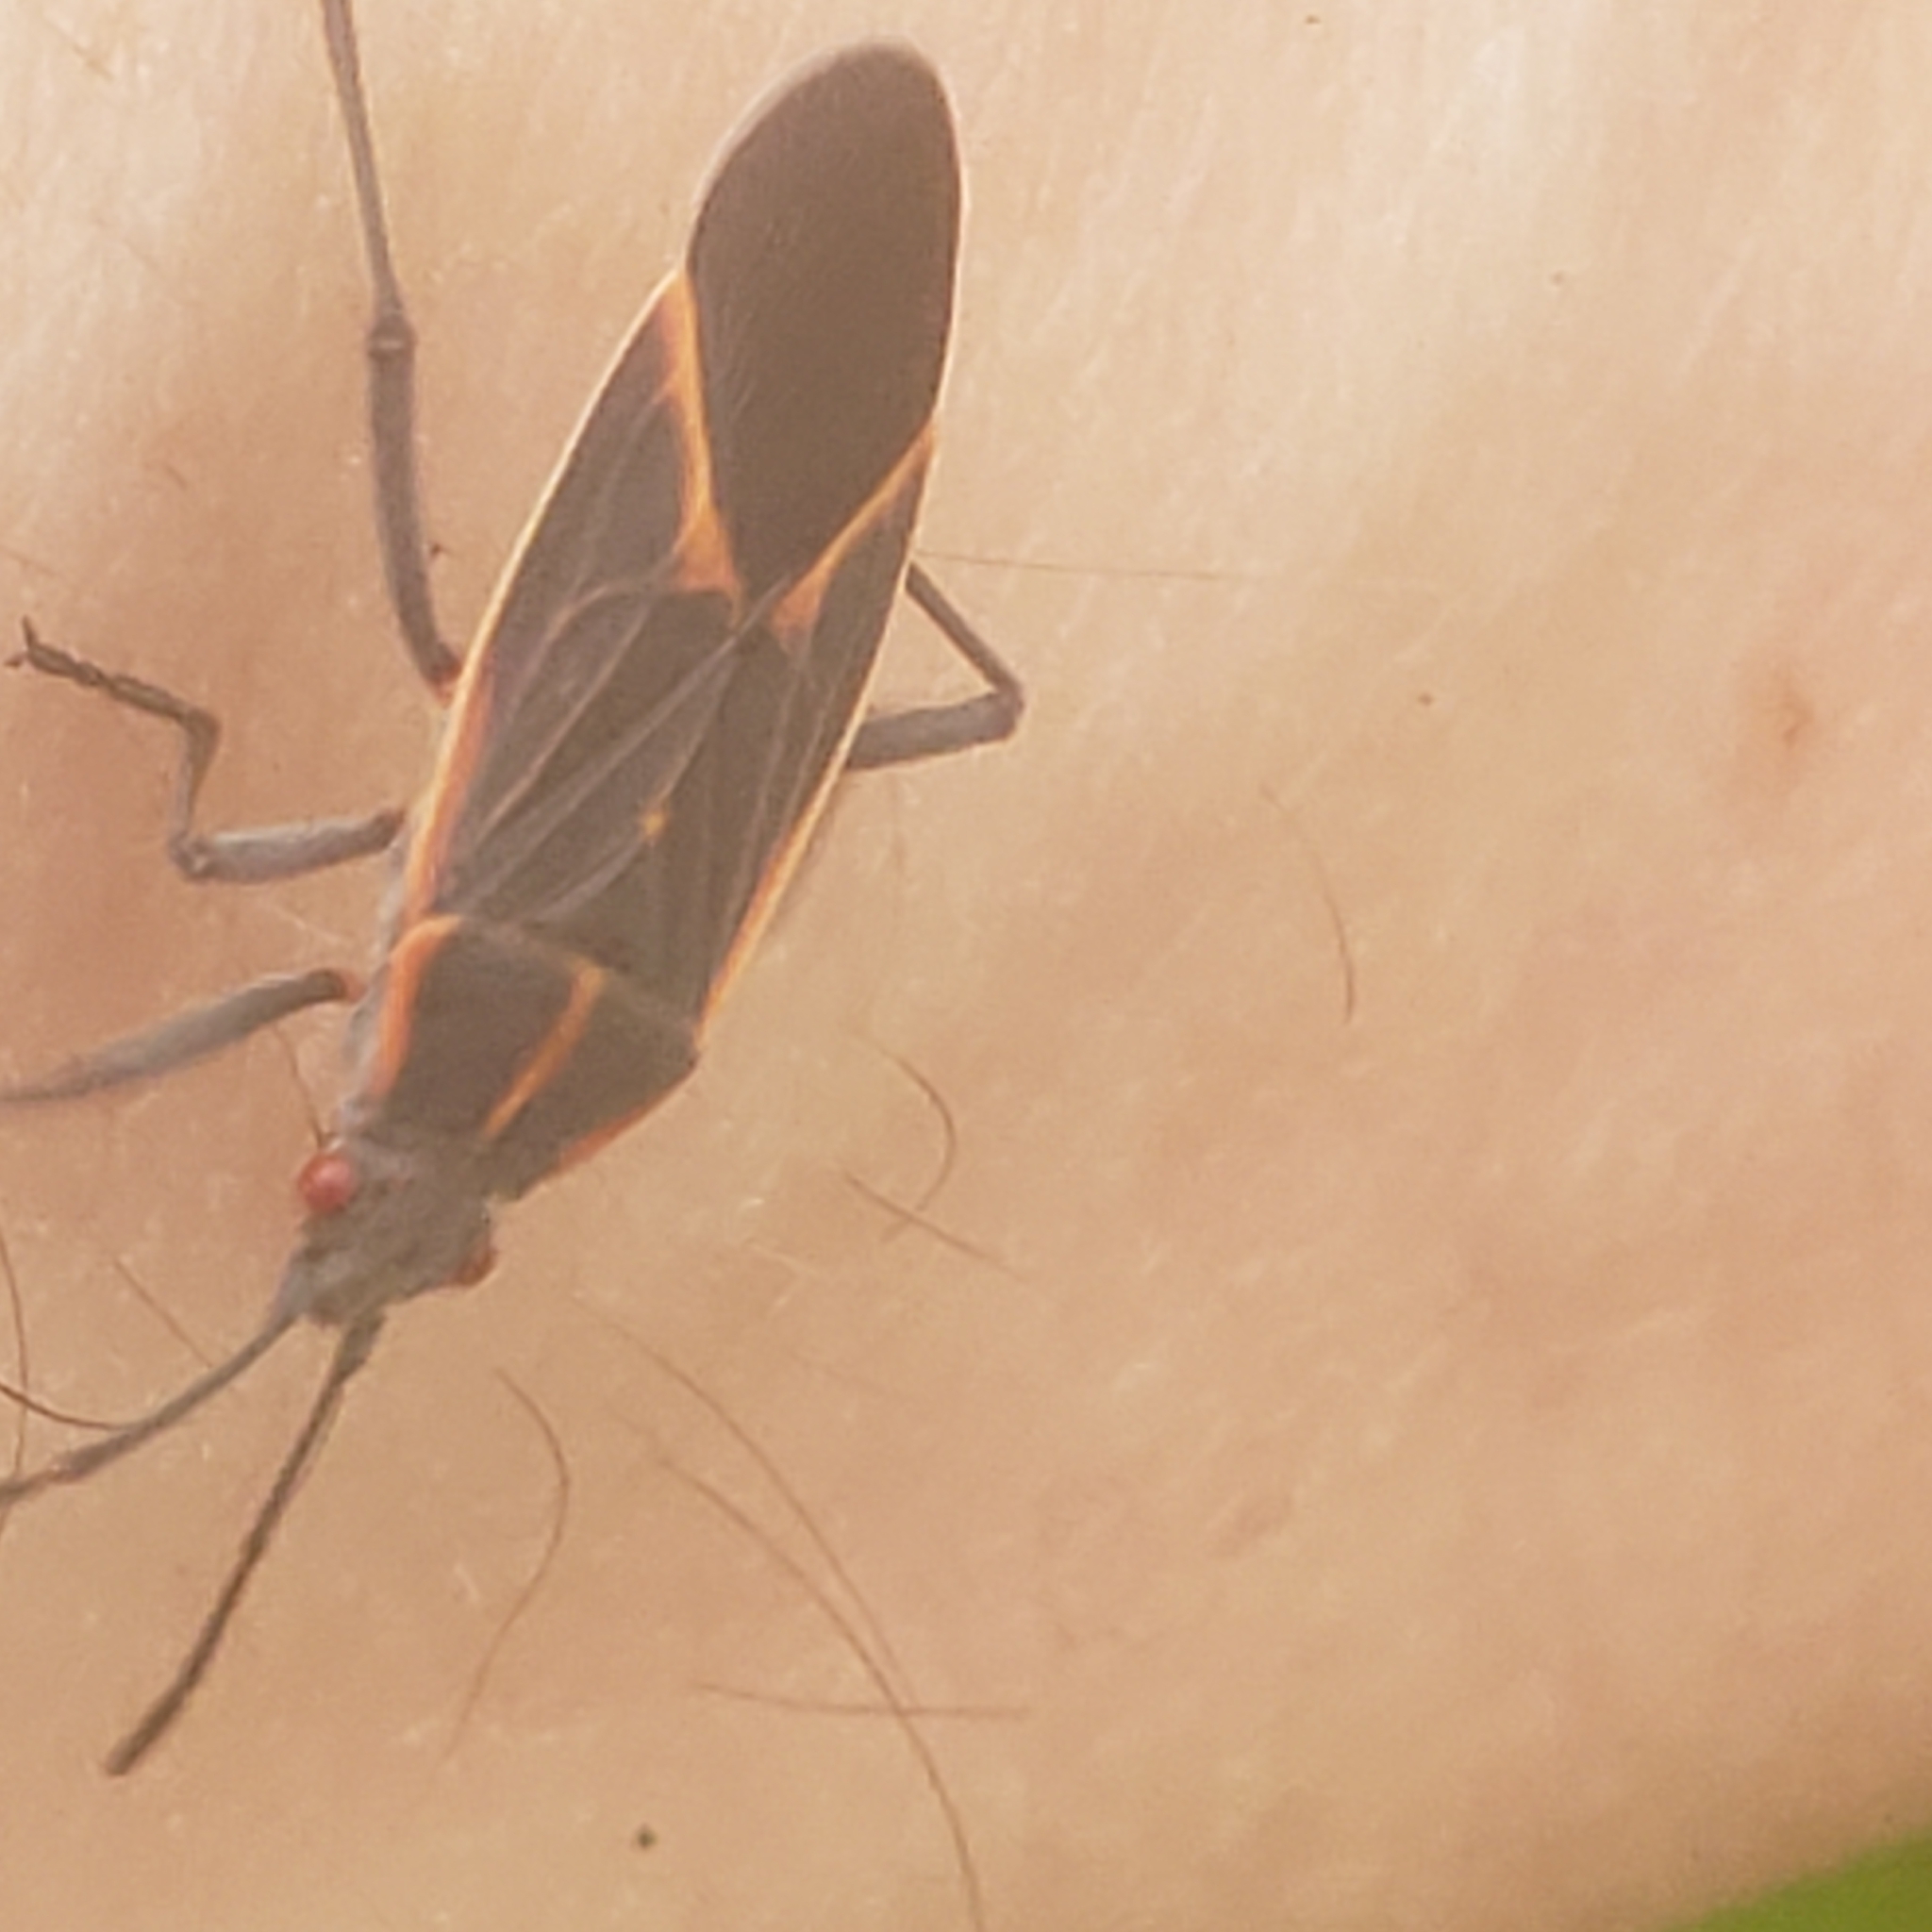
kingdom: Animalia
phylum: Arthropoda
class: Insecta
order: Hemiptera
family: Rhopalidae
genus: Boisea
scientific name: Boisea trivittata
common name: Boxelder bug
